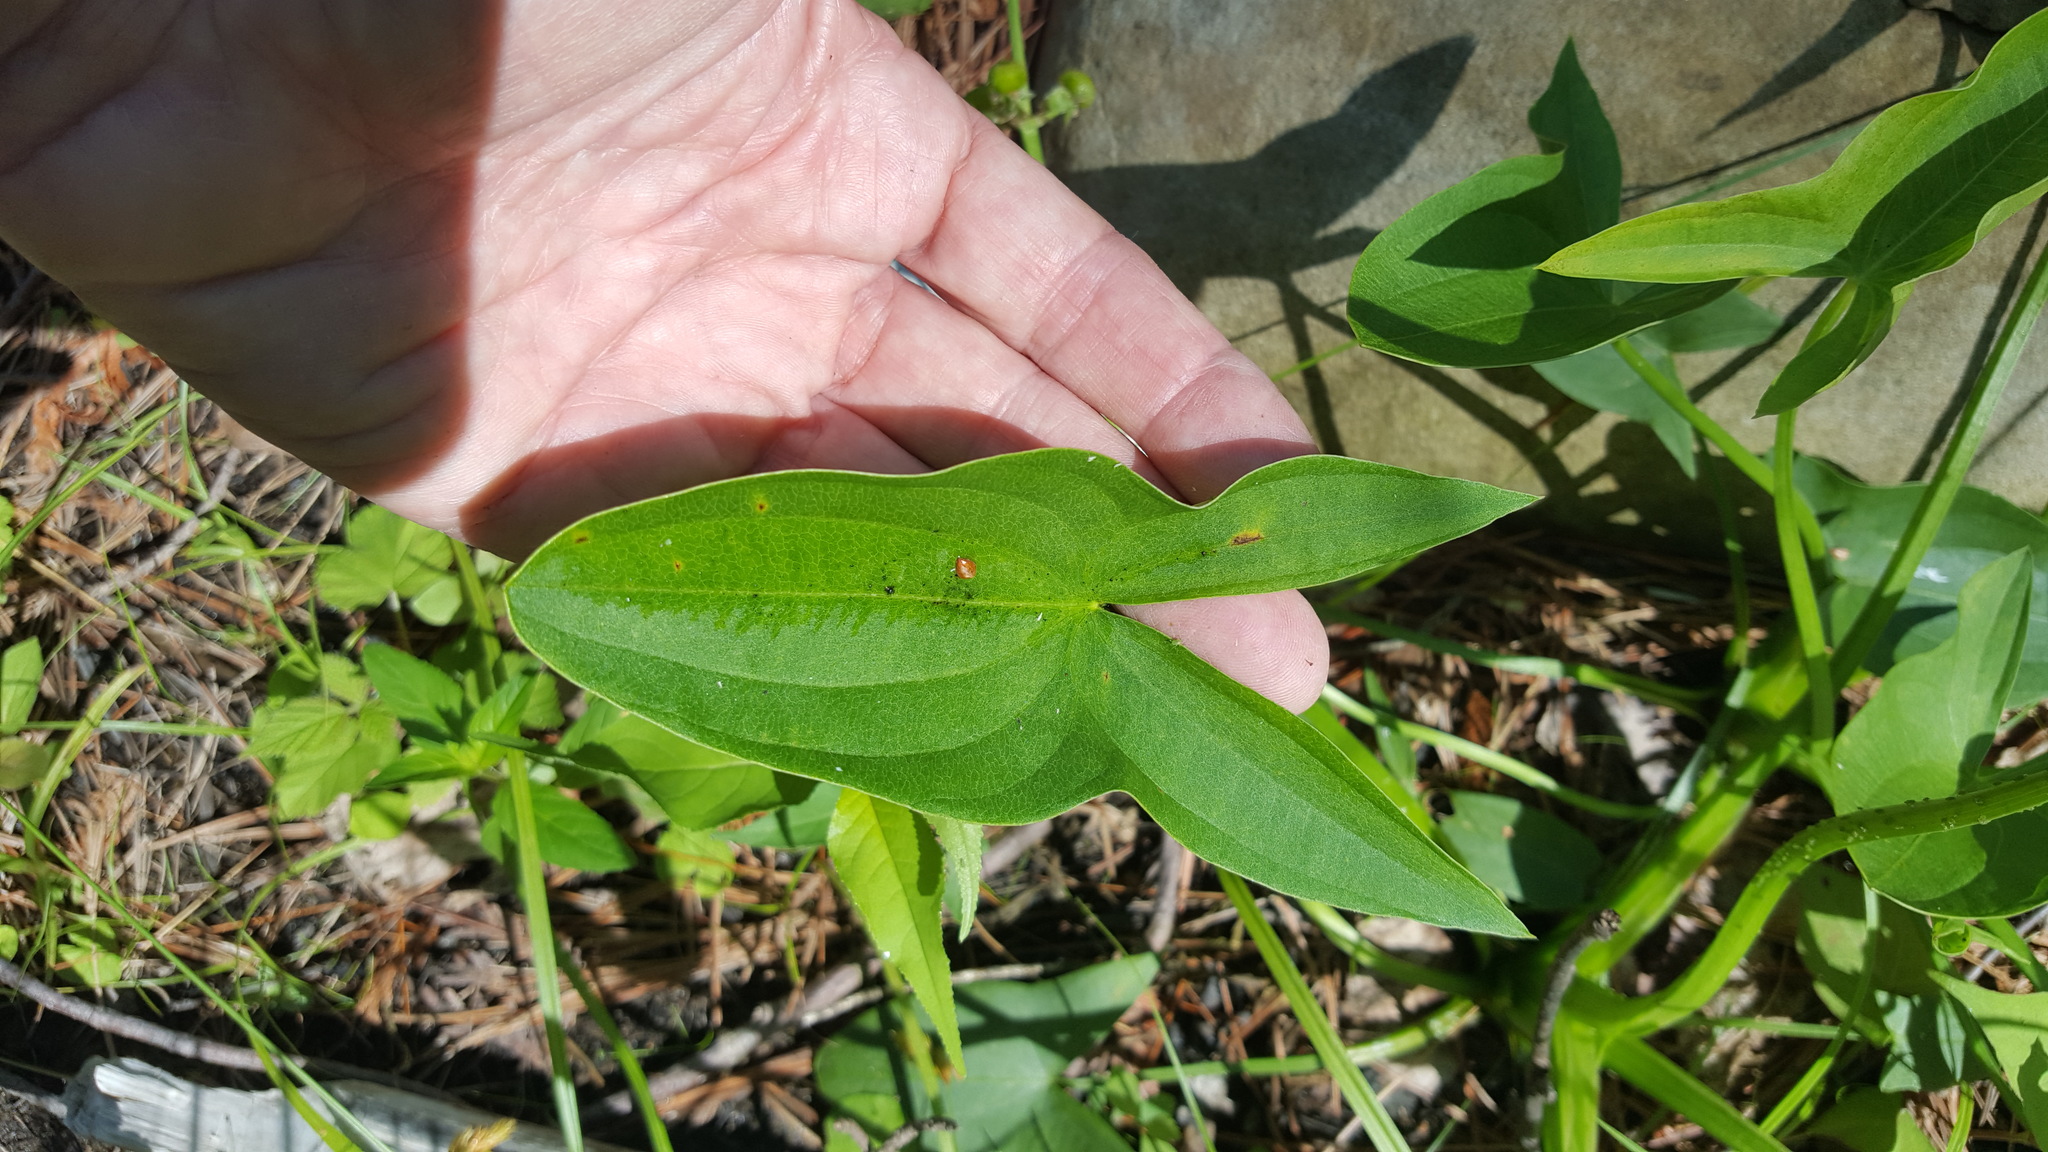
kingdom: Plantae
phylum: Tracheophyta
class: Liliopsida
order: Alismatales
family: Alismataceae
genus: Sagittaria
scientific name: Sagittaria latifolia
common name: Duck-potato
